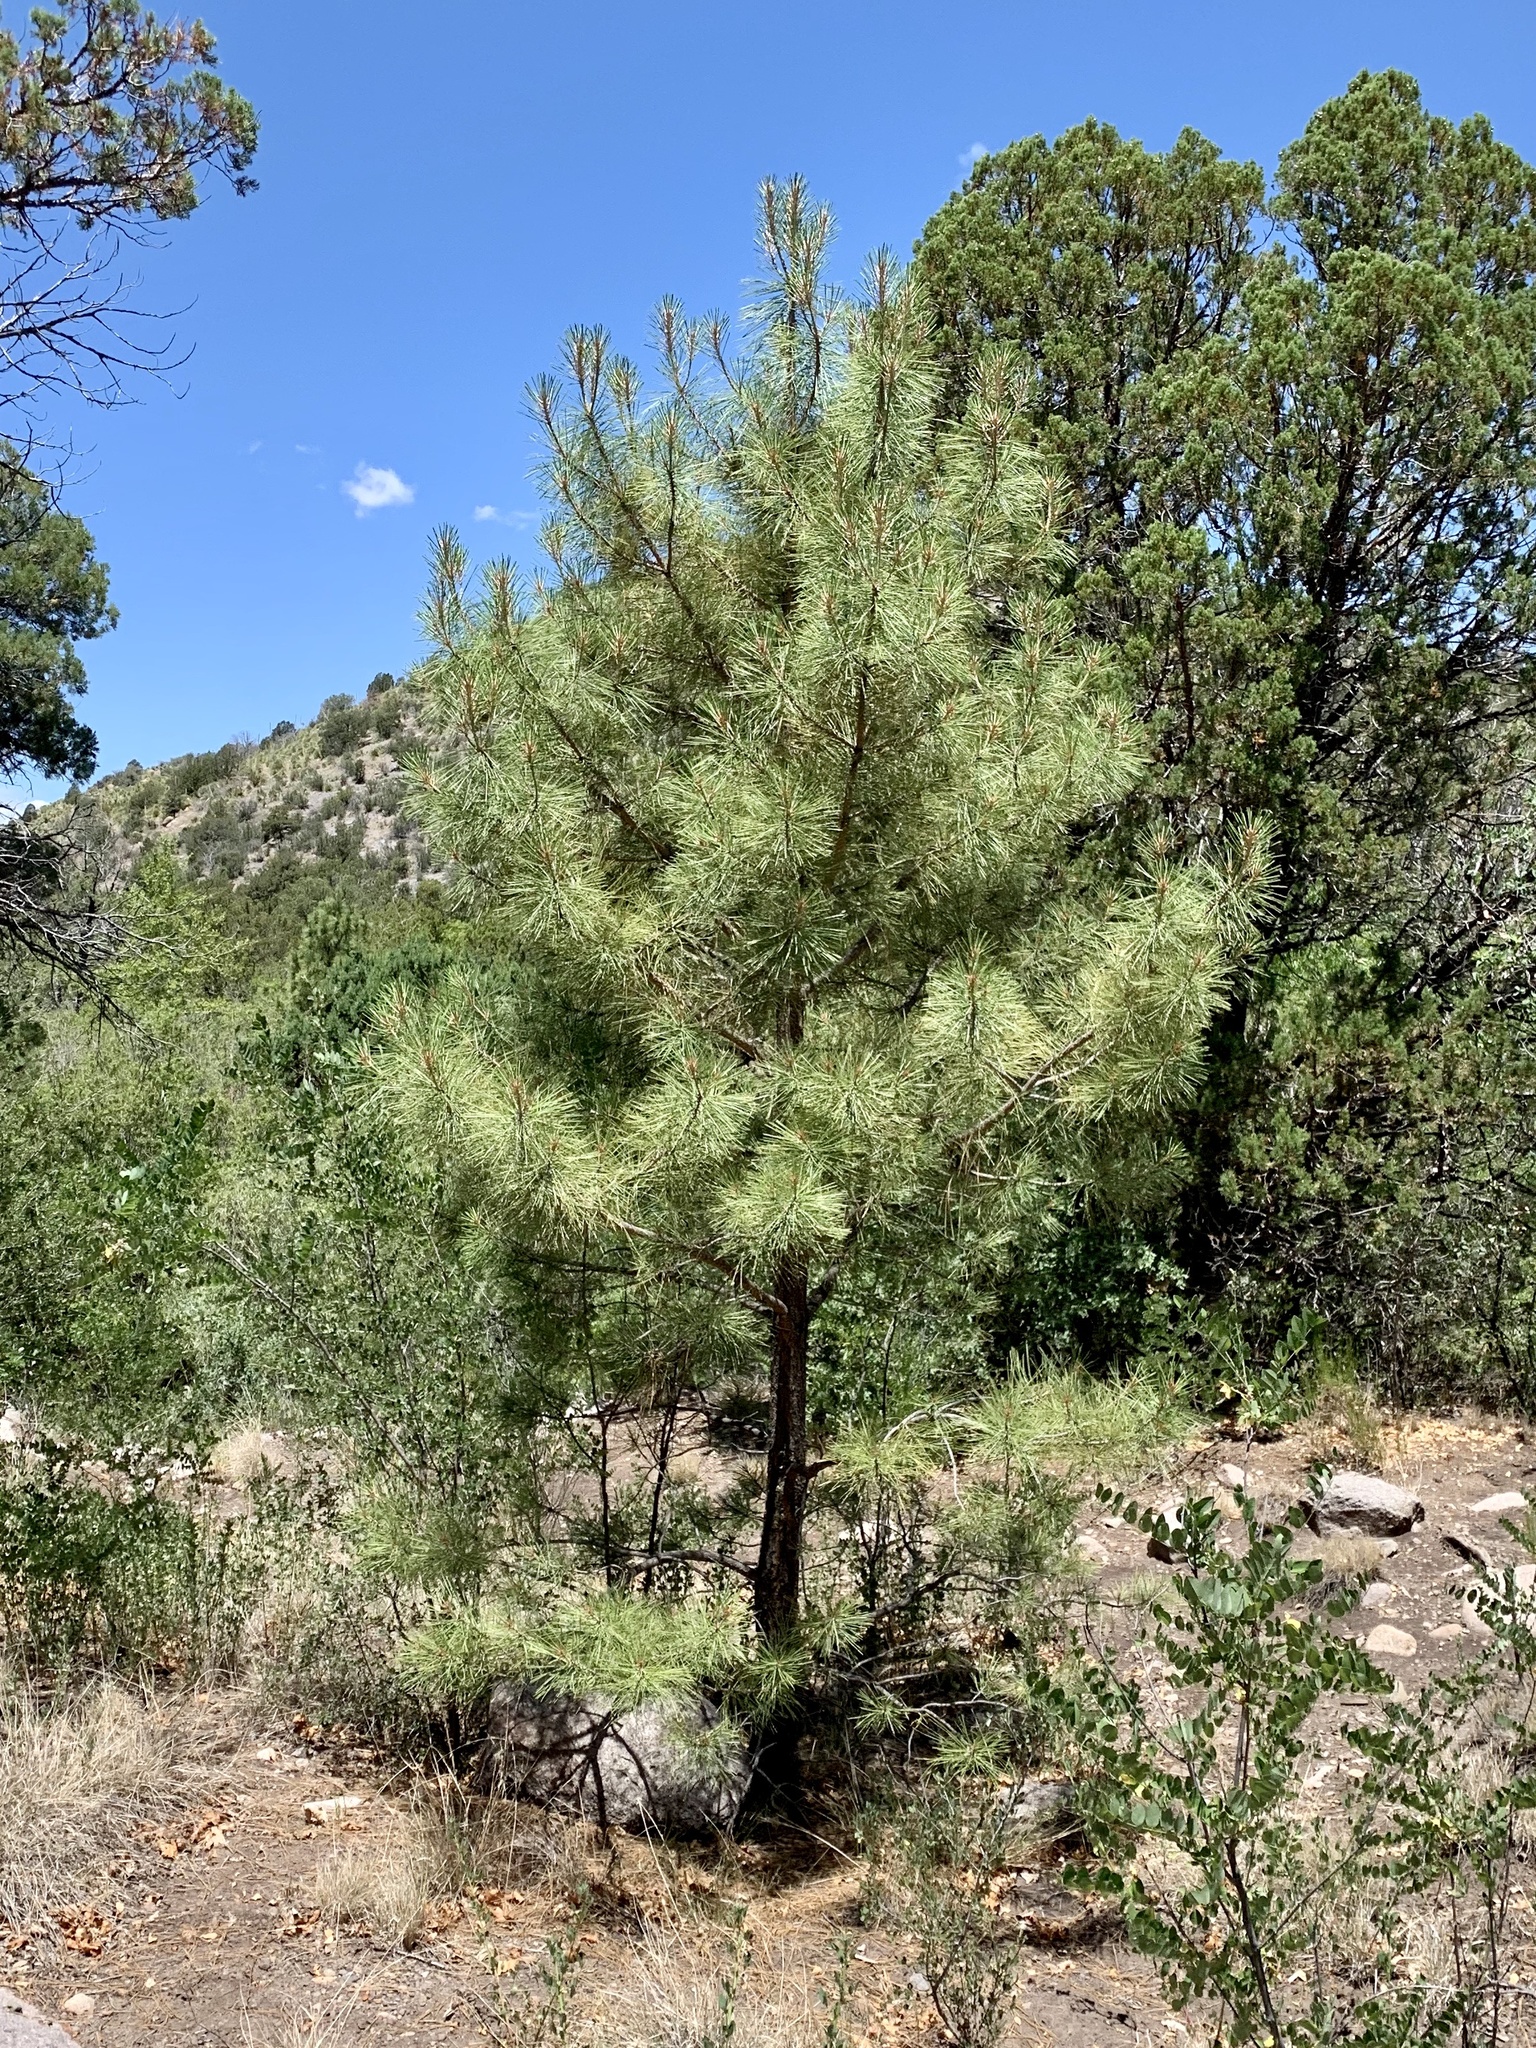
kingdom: Plantae
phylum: Tracheophyta
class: Pinopsida
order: Pinales
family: Pinaceae
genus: Pinus
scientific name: Pinus ponderosa
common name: Western yellow-pine
